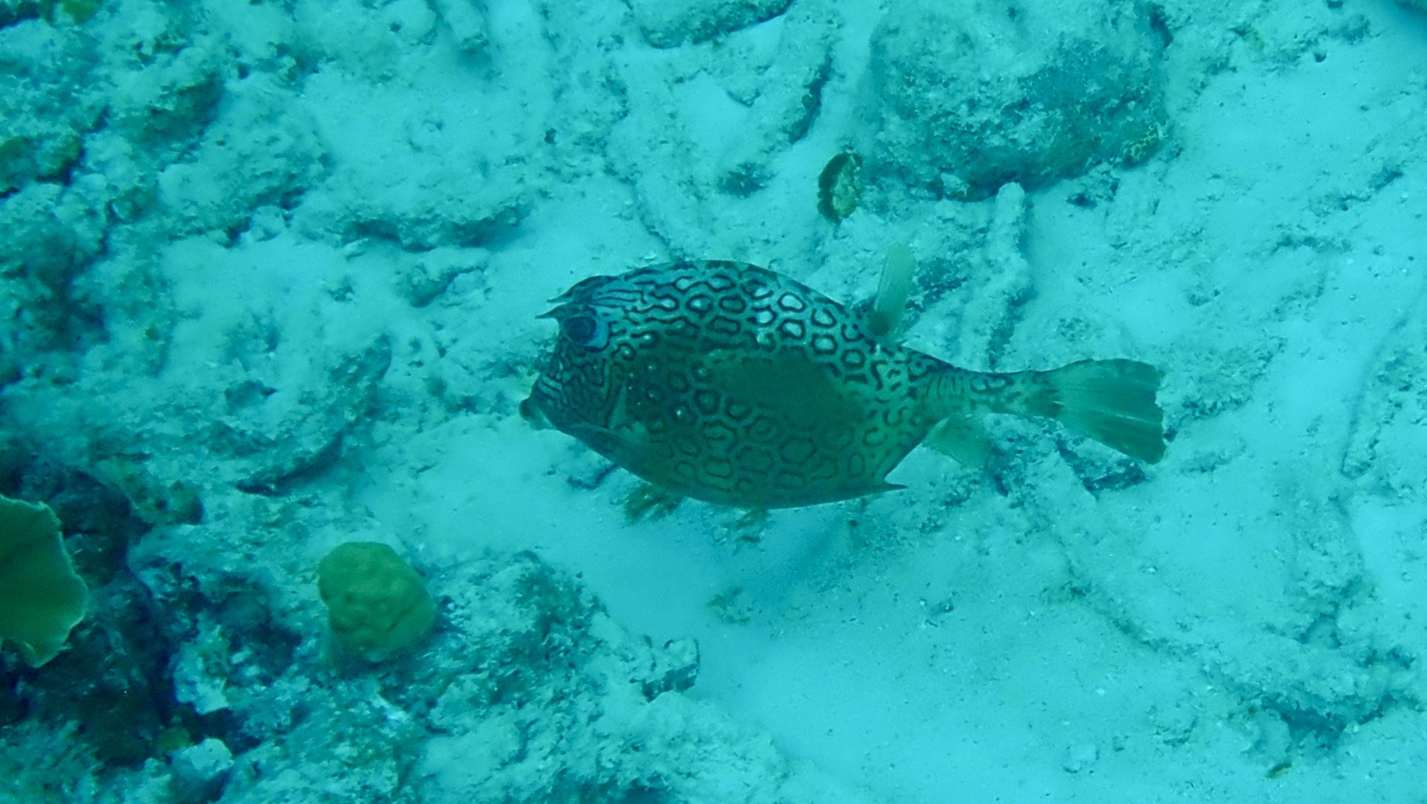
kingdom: Animalia
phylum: Chordata
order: Tetraodontiformes
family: Ostraciidae
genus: Acanthostracion
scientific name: Acanthostracion polygonius
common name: Honeycomb cowfish
